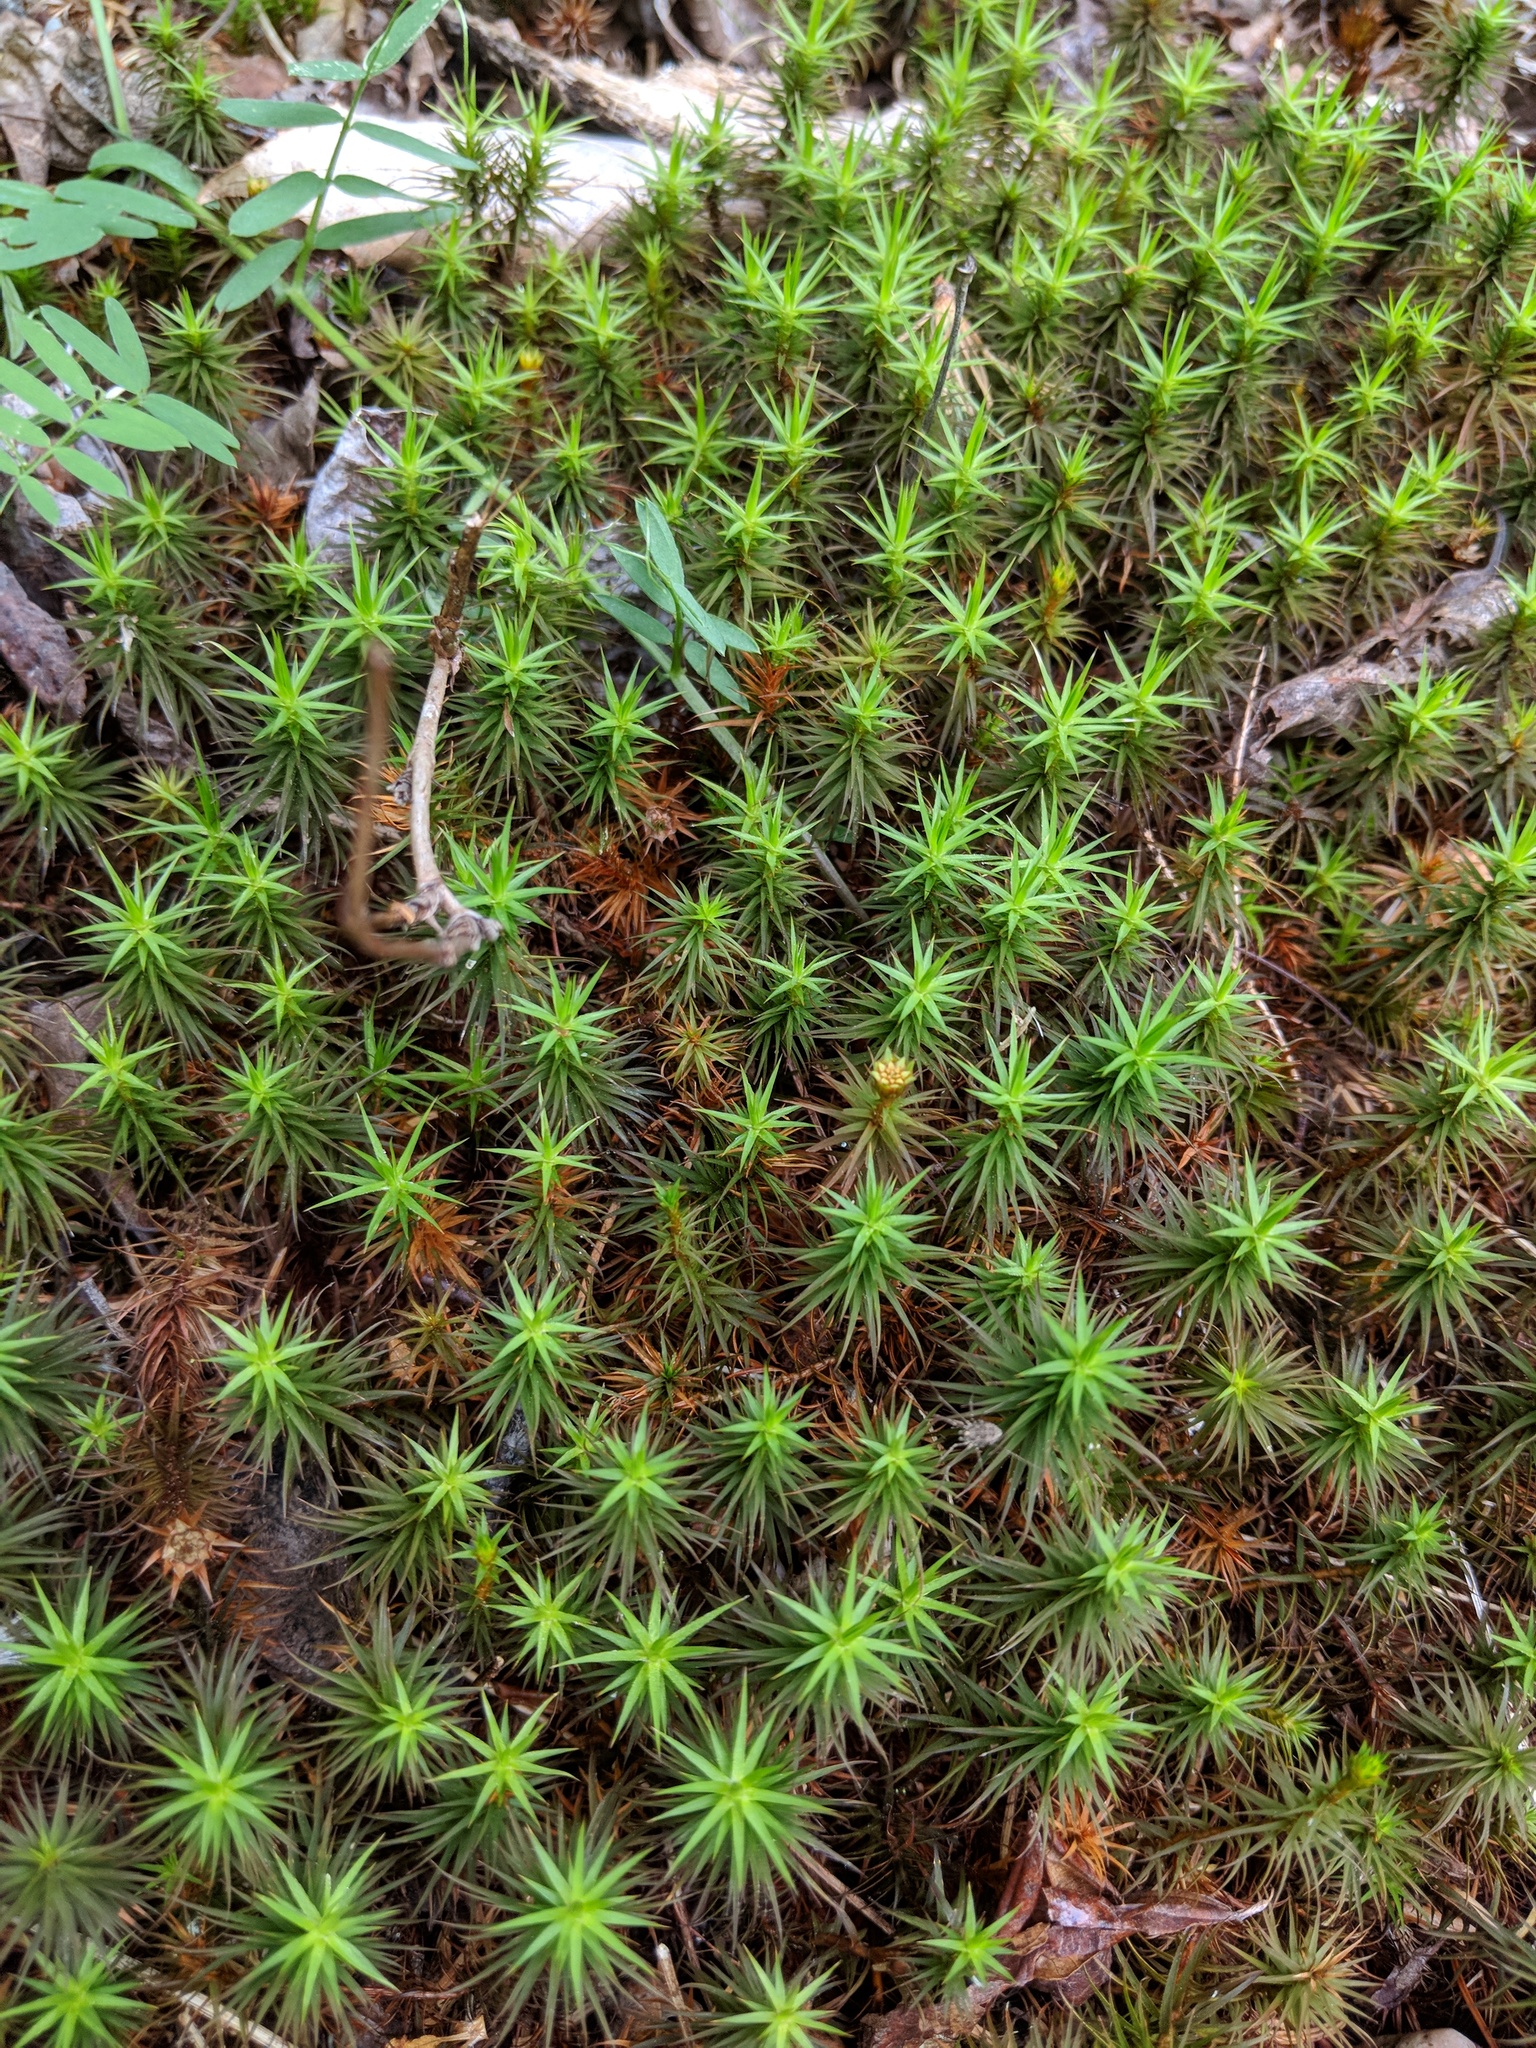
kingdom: Plantae
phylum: Bryophyta
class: Polytrichopsida
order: Polytrichales
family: Polytrichaceae
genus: Polytrichum
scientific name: Polytrichum commune
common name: Common haircap
